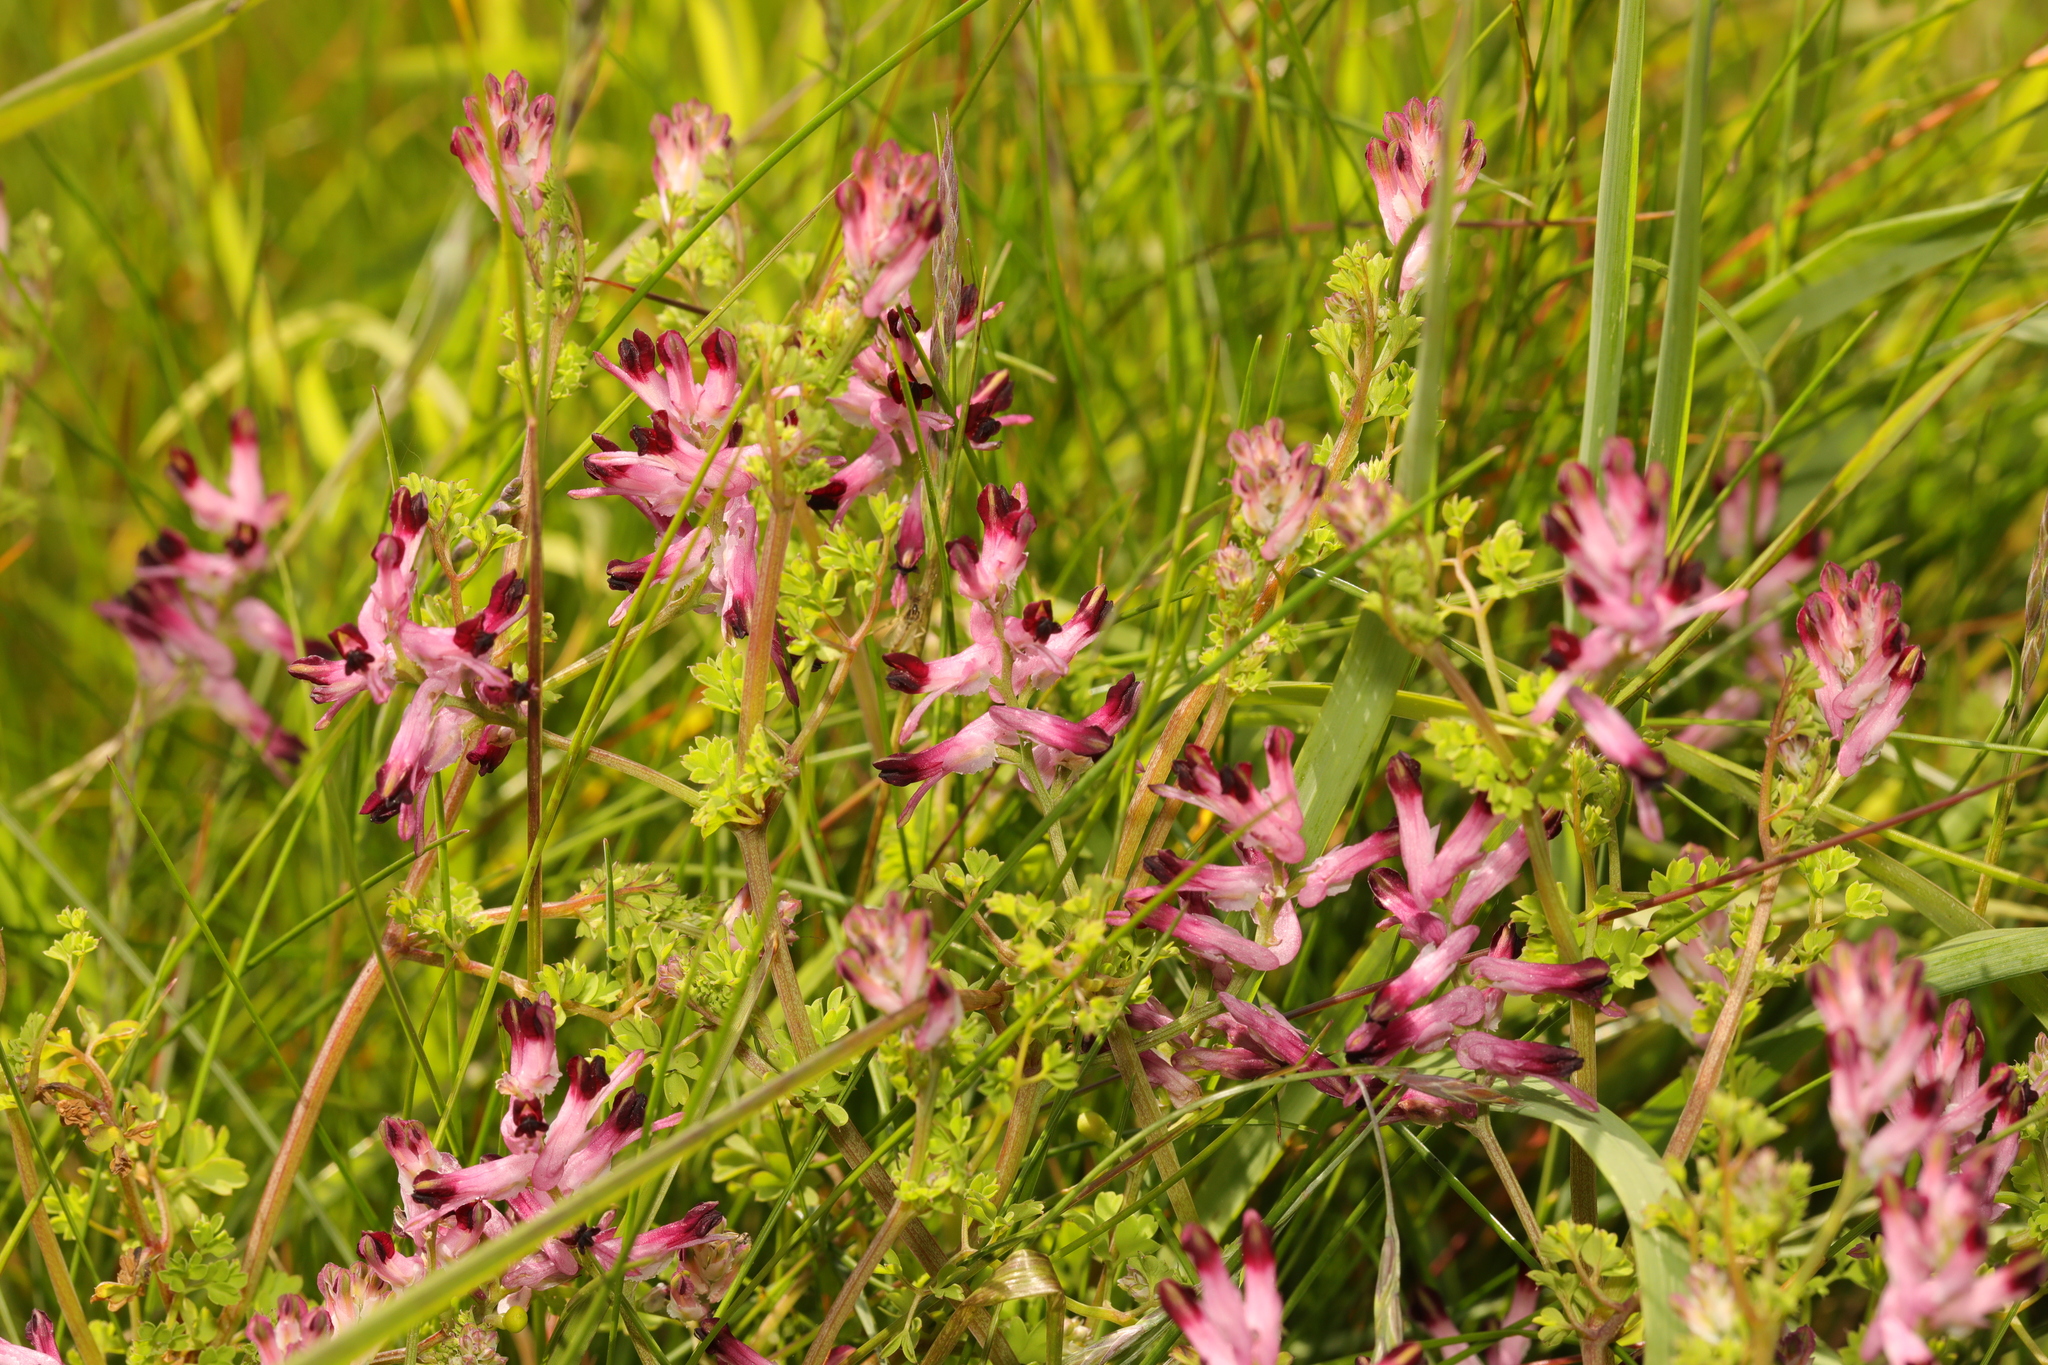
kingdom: Plantae
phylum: Tracheophyta
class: Magnoliopsida
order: Ranunculales
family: Papaveraceae
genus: Fumaria
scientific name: Fumaria muralis
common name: Common ramping-fumitory
